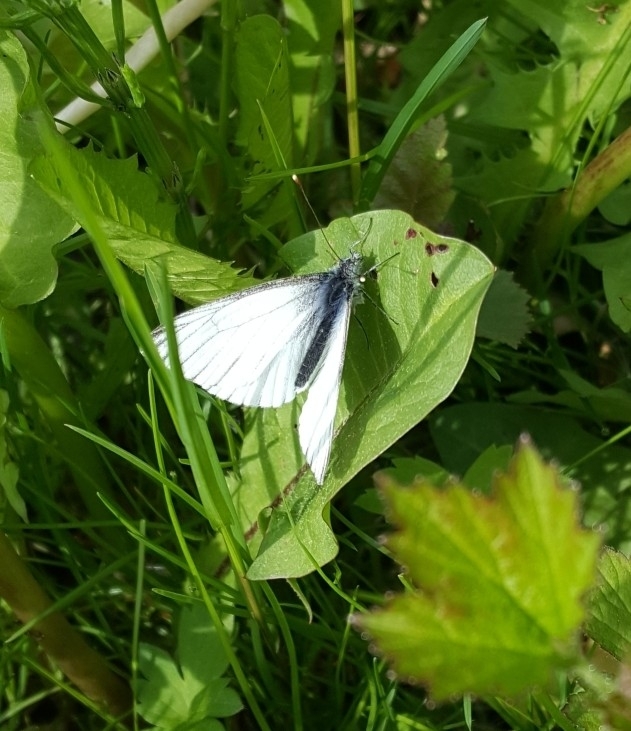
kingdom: Animalia
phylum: Arthropoda
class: Insecta
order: Lepidoptera
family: Pieridae
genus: Pieris
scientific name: Pieris napi
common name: Green-veined white
